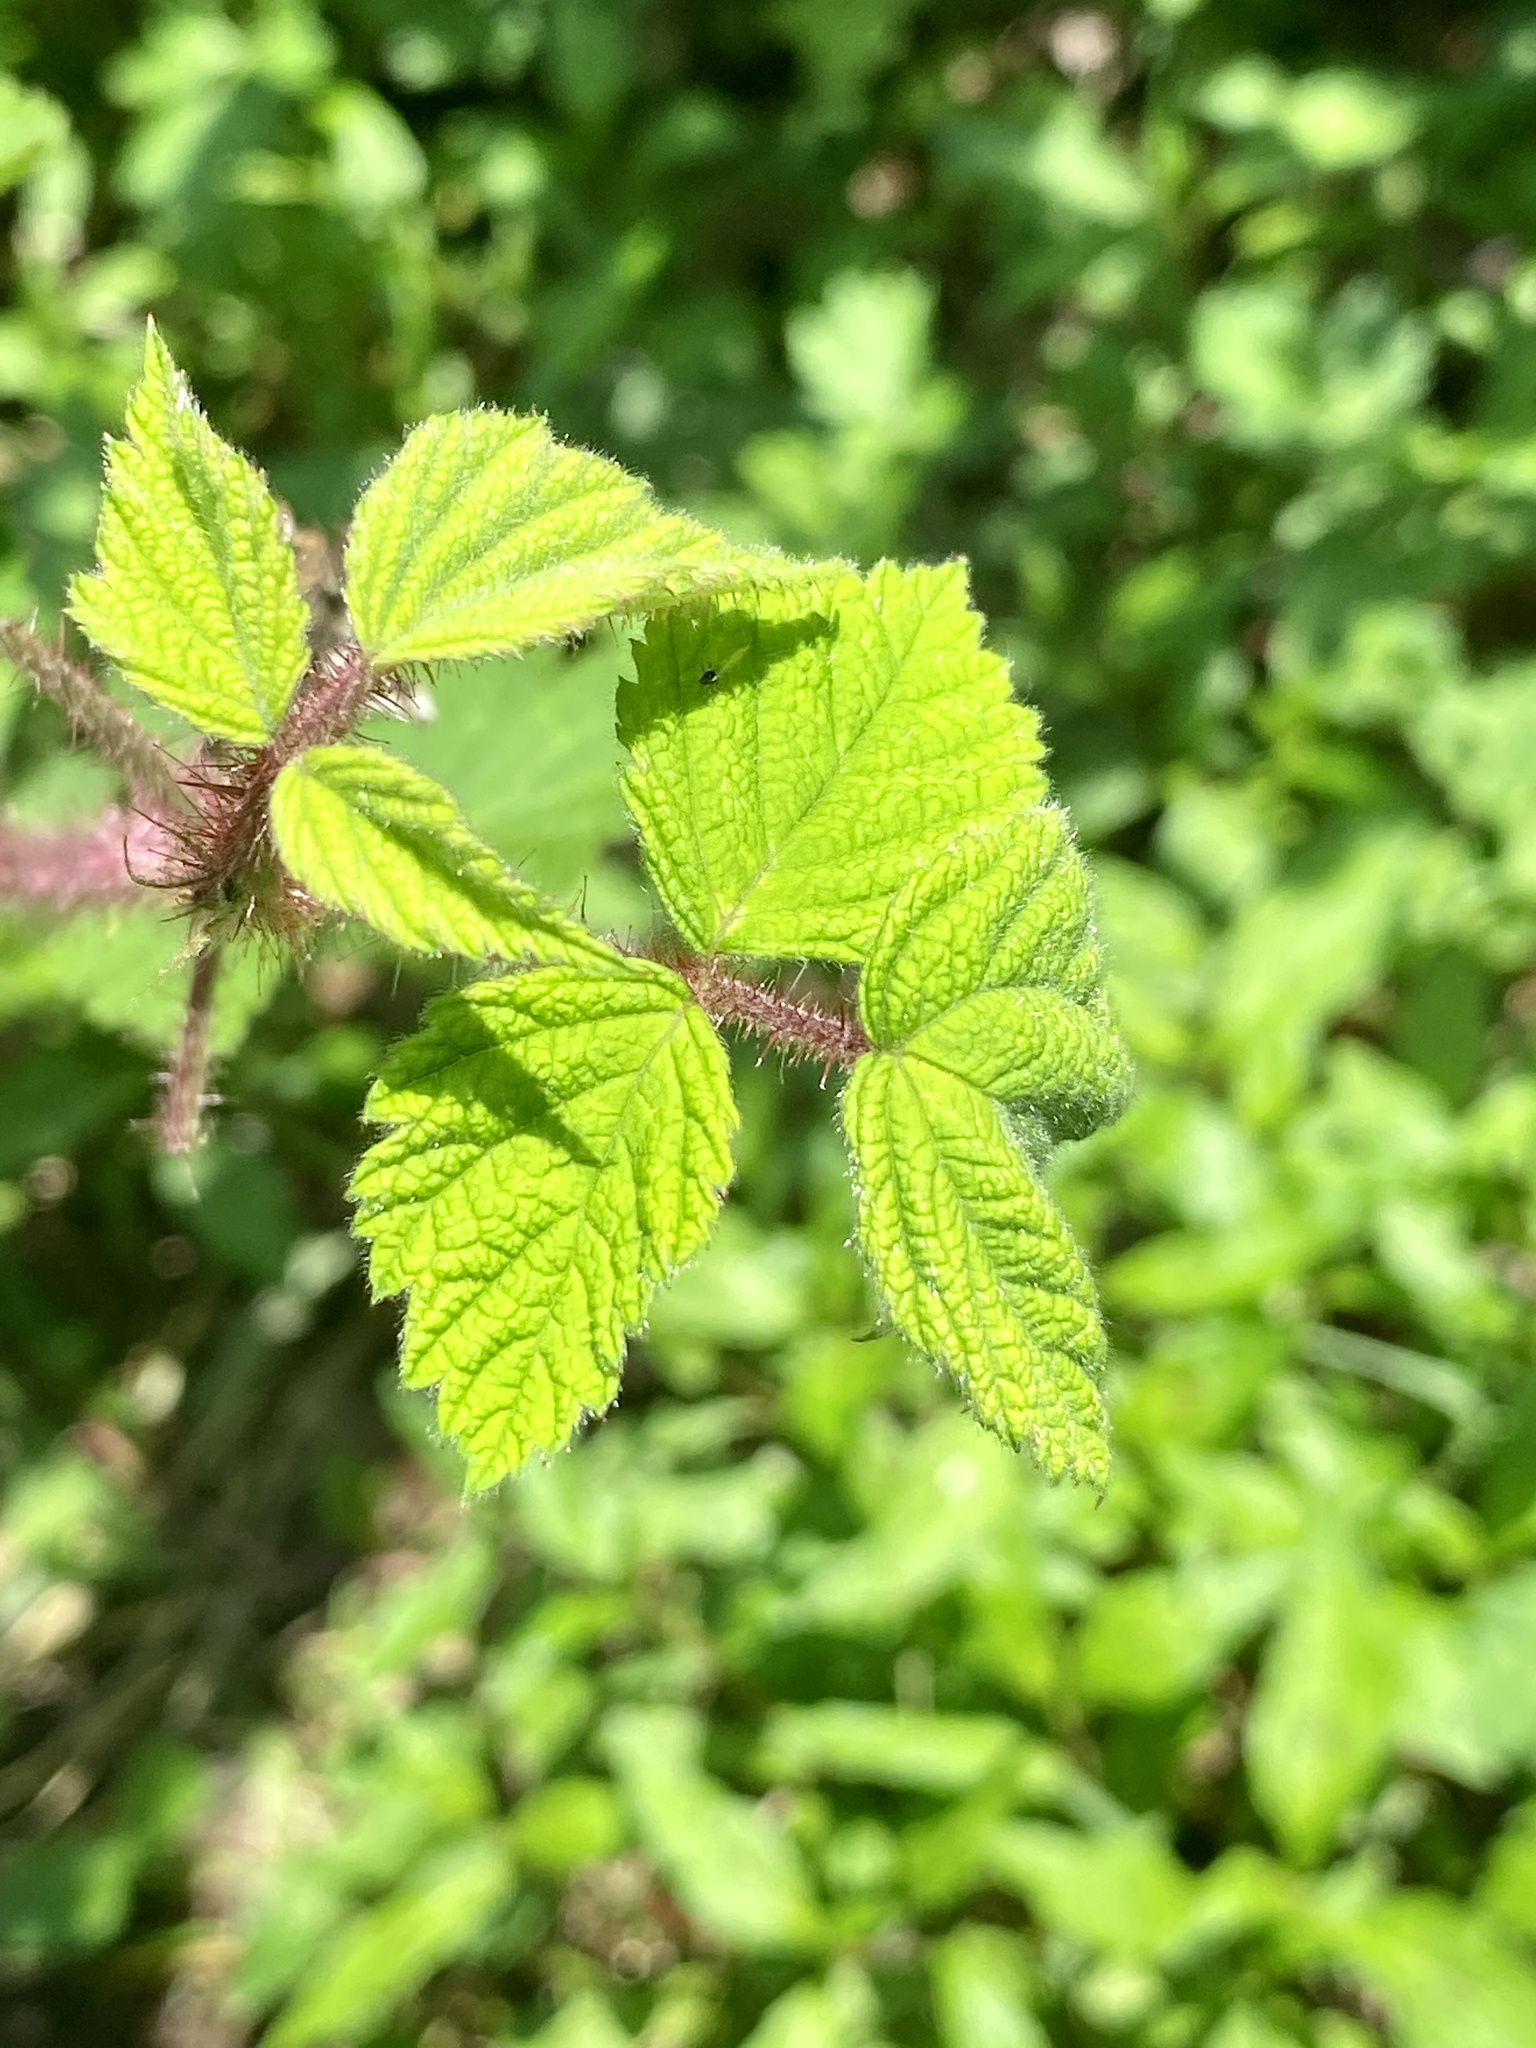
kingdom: Plantae
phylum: Tracheophyta
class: Magnoliopsida
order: Rosales
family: Rosaceae
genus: Rubus
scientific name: Rubus phoenicolasius
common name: Japanese wineberry
